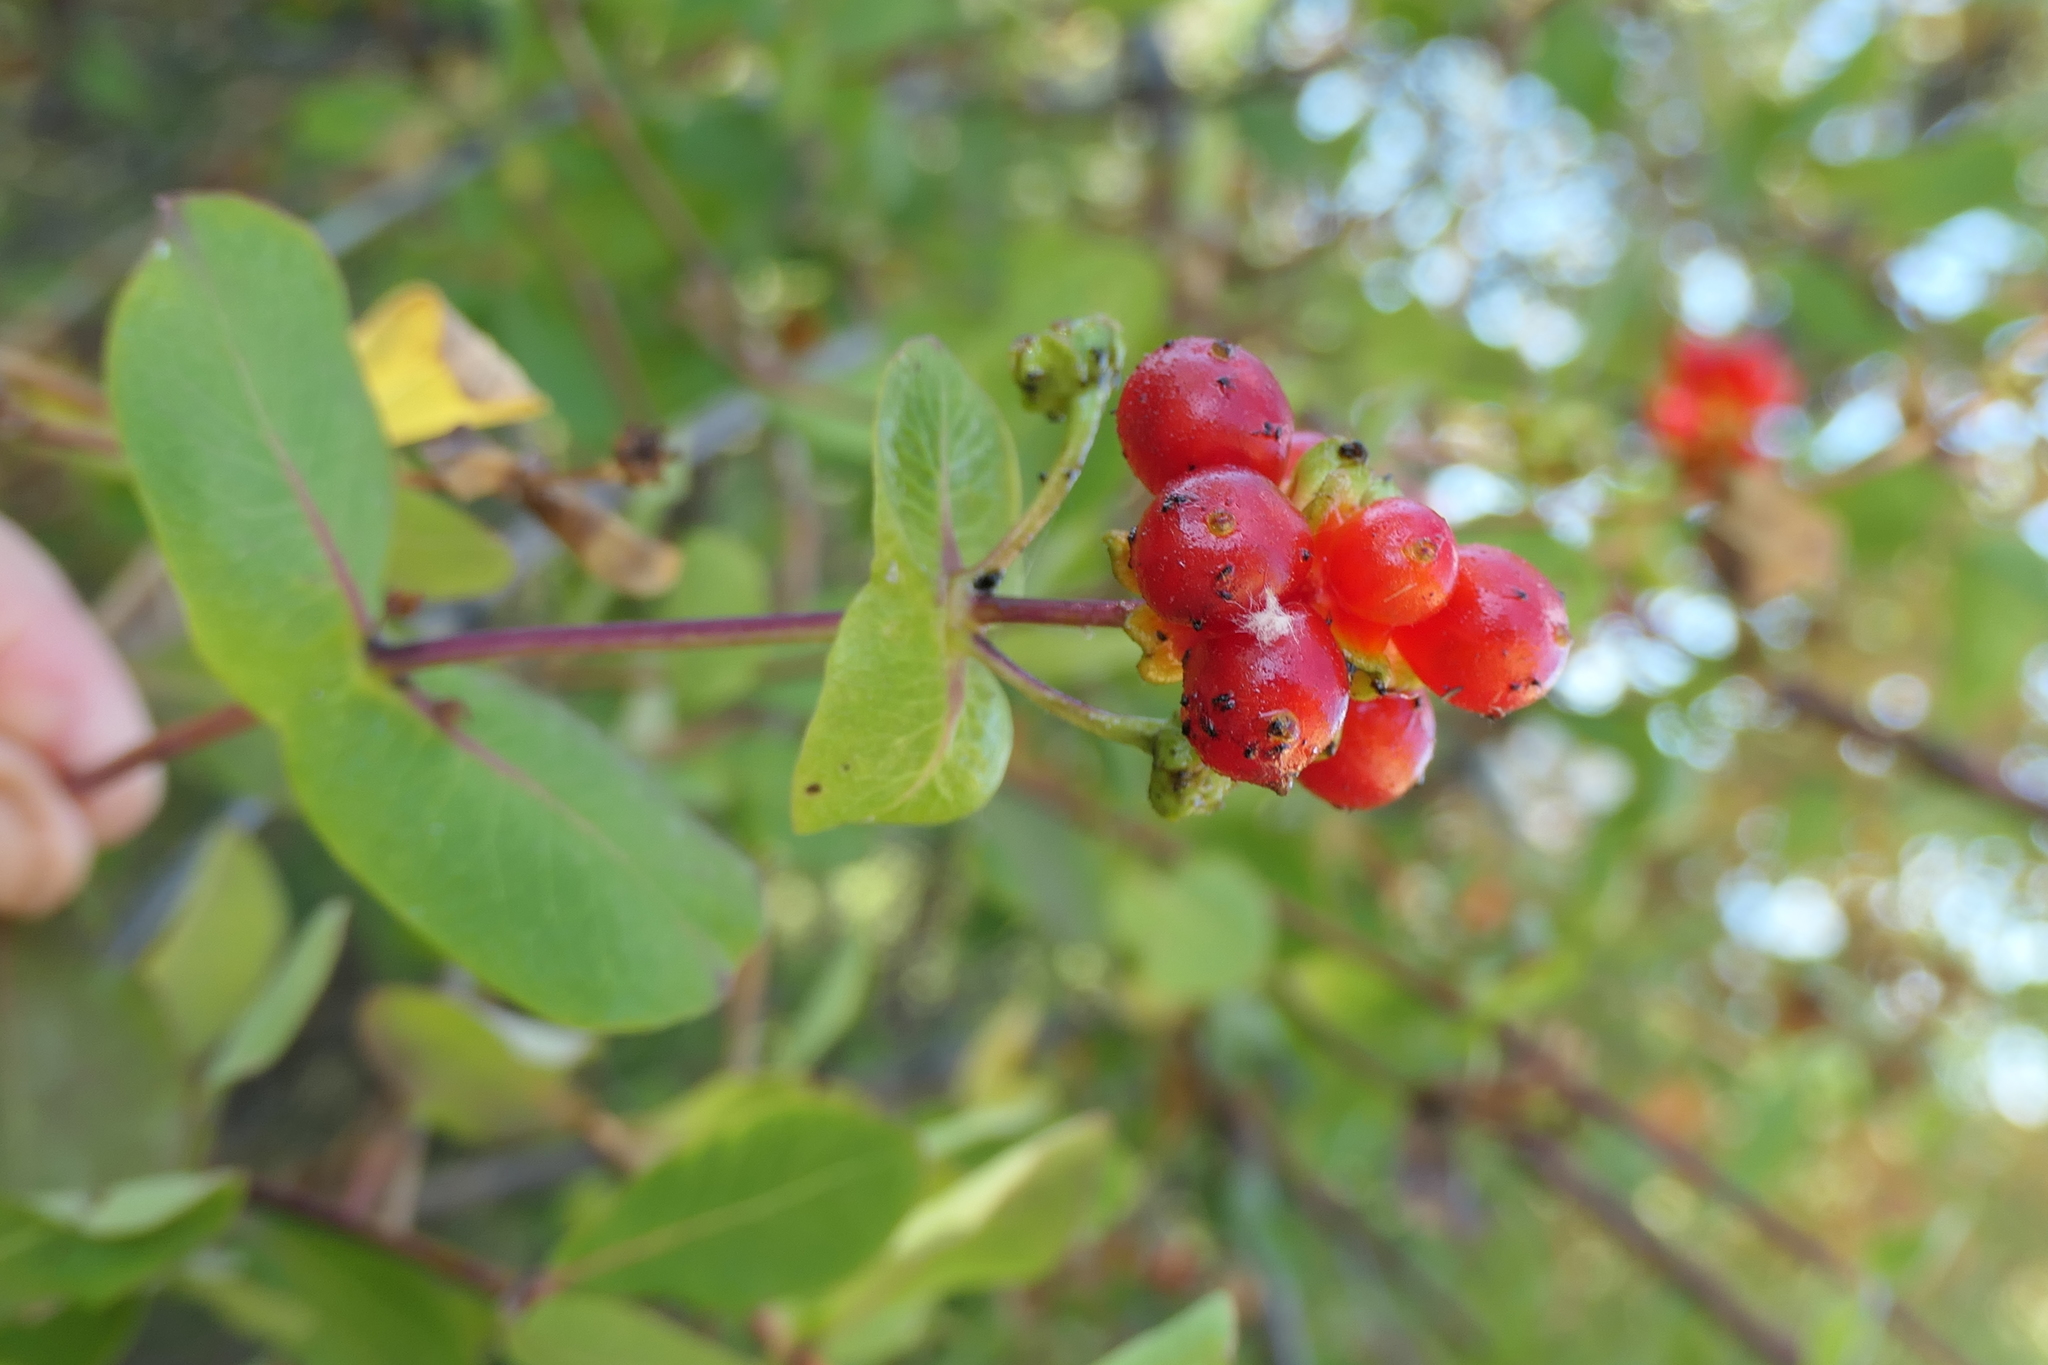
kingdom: Plantae
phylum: Tracheophyta
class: Magnoliopsida
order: Dipsacales
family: Caprifoliaceae
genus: Lonicera
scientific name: Lonicera etrusca
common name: Etruscan honeysuckle
